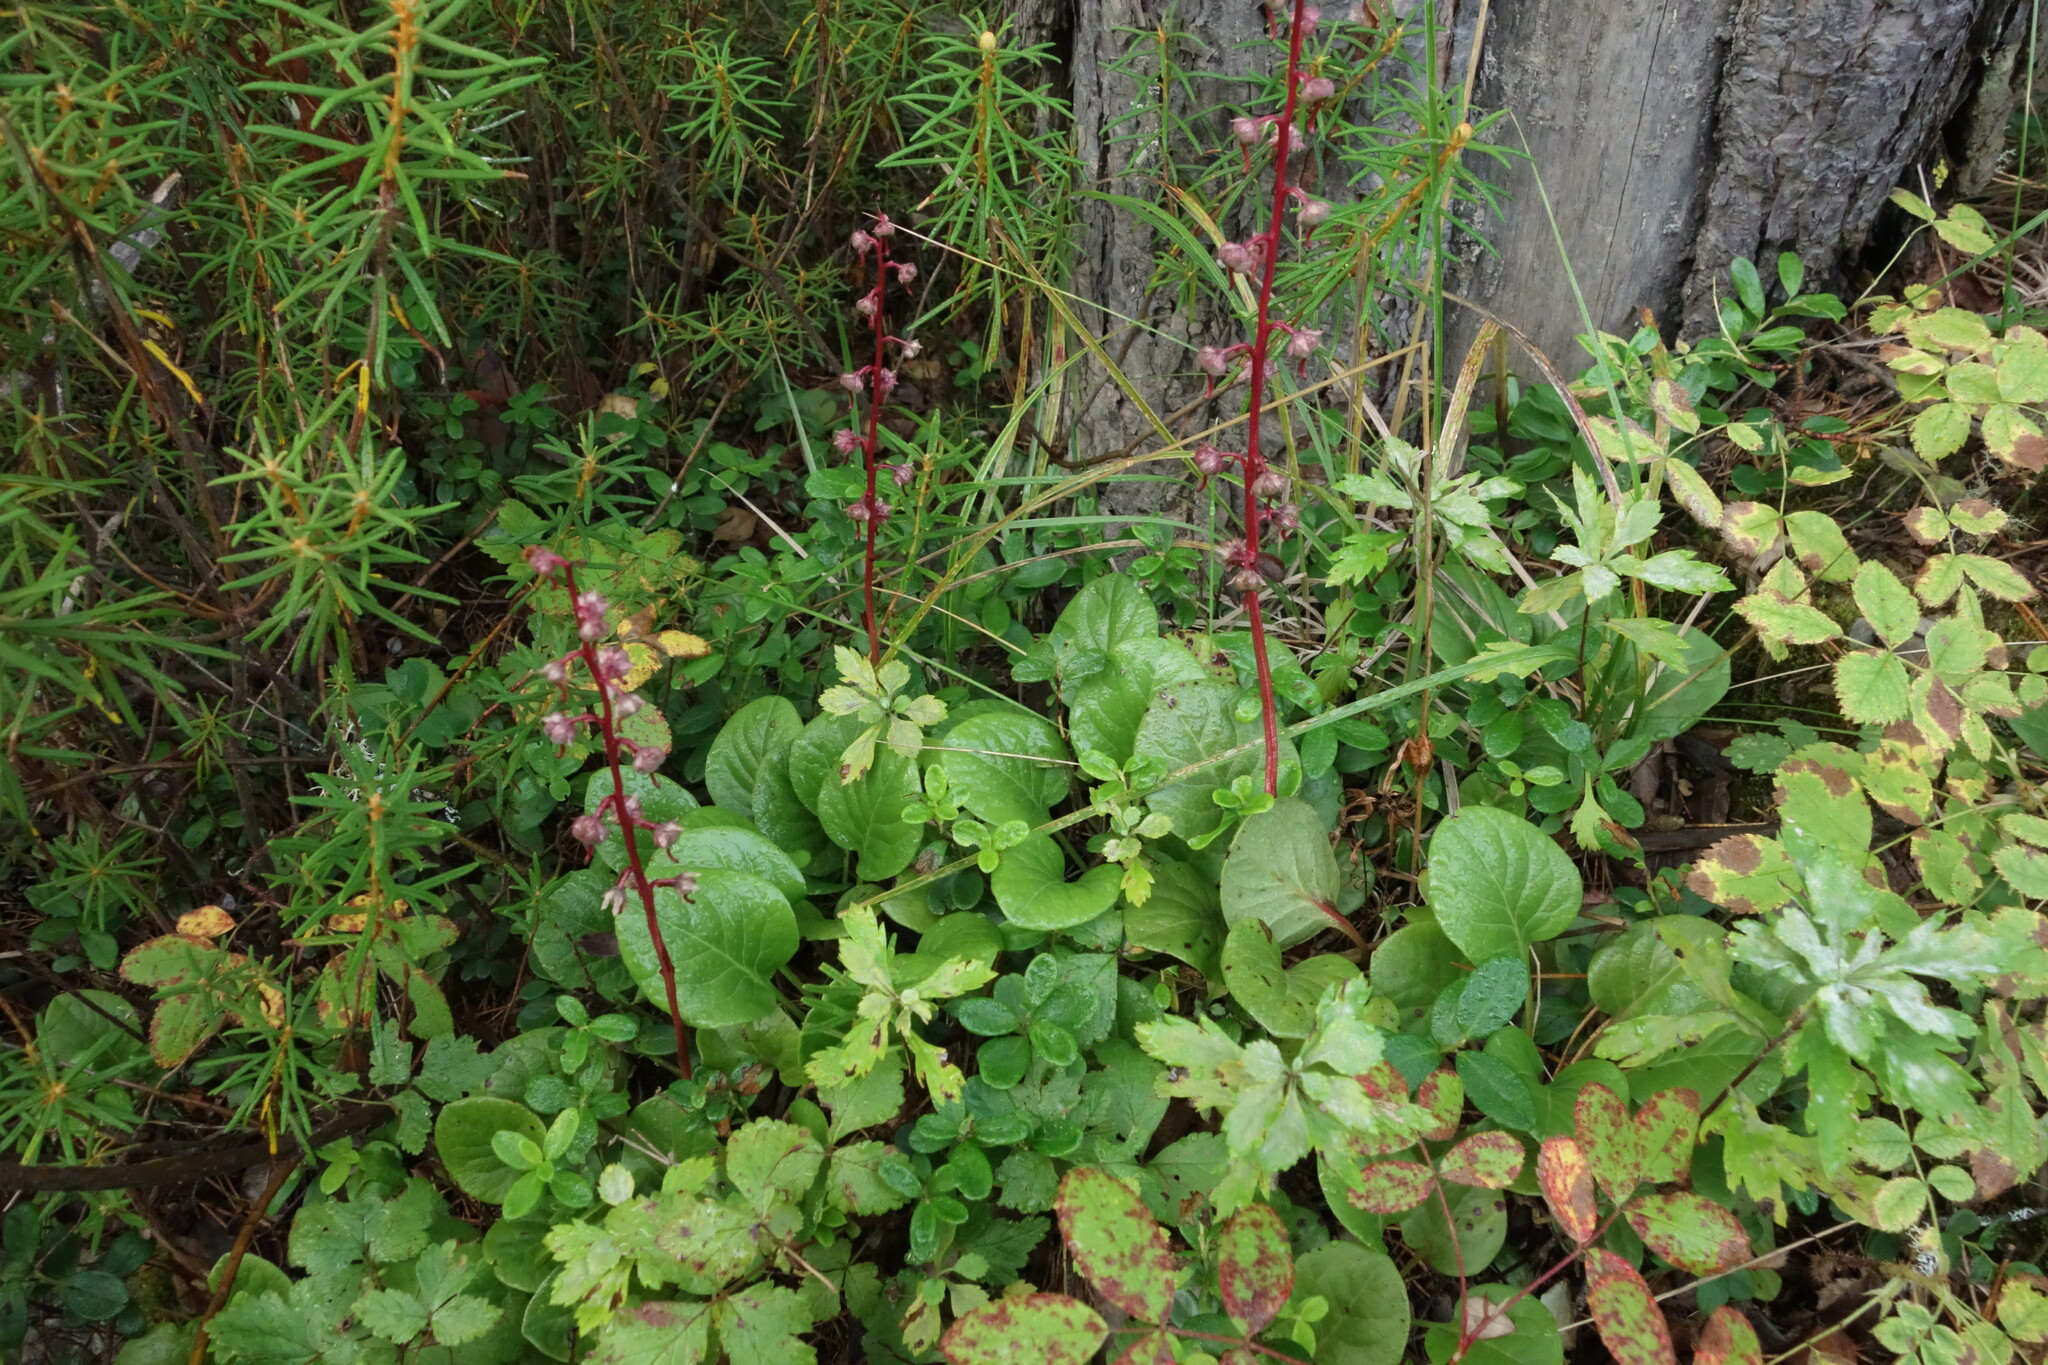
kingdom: Plantae
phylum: Tracheophyta
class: Magnoliopsida
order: Ericales
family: Ericaceae
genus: Pyrola
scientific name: Pyrola asarifolia
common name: Bog wintergreen
